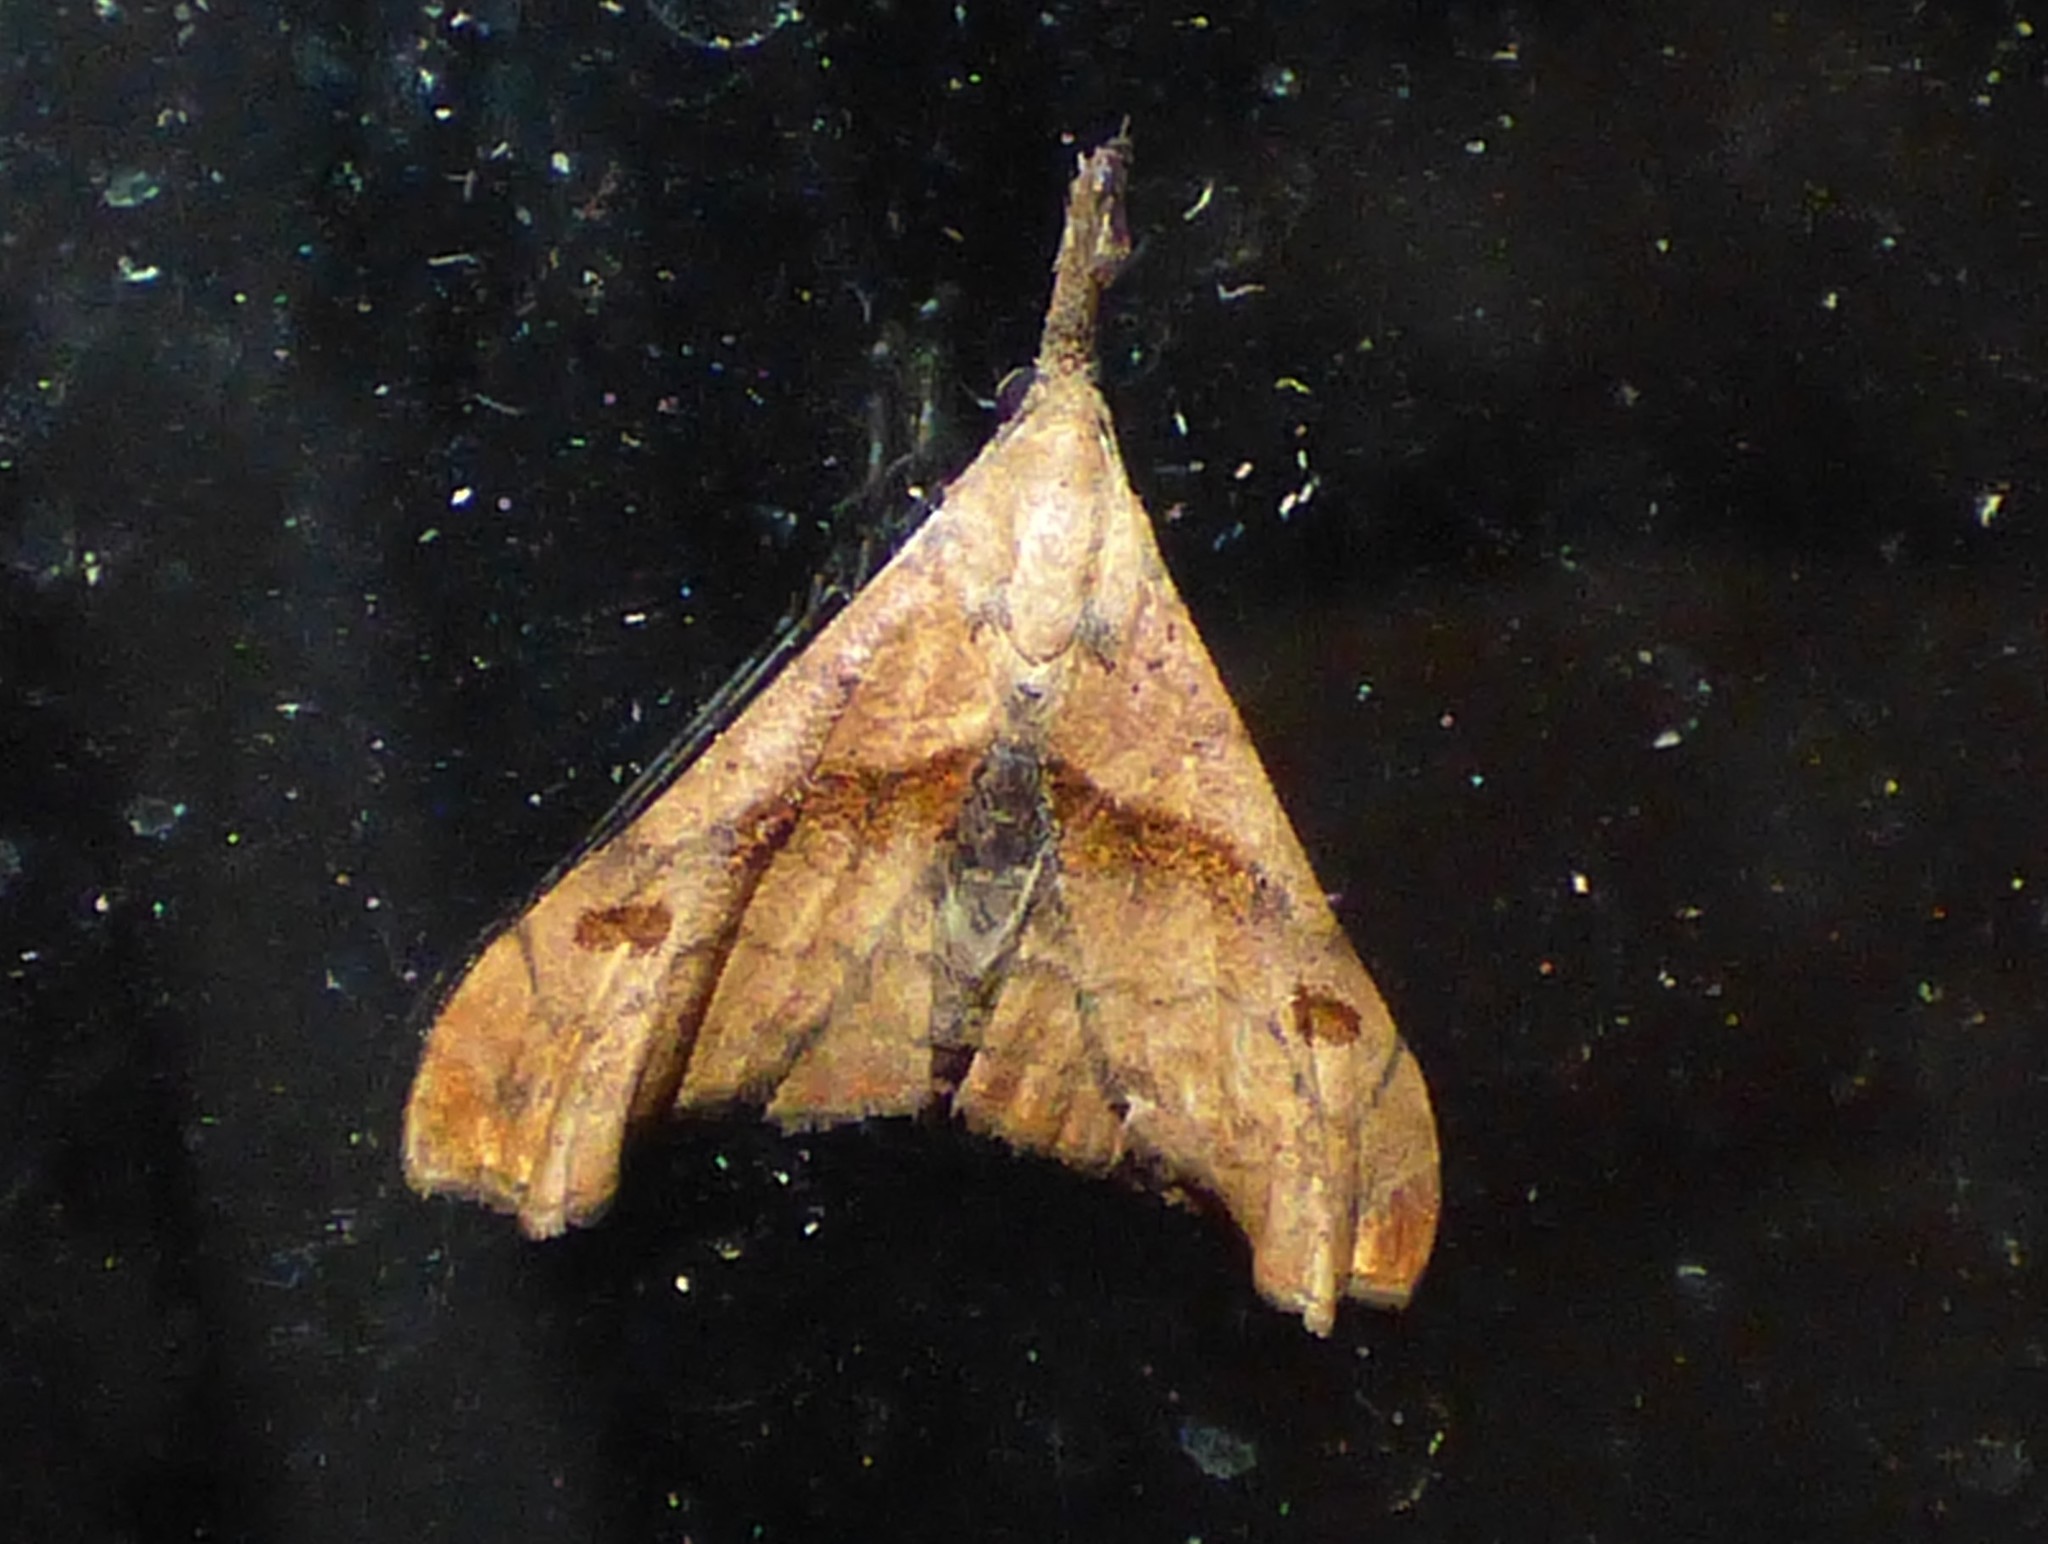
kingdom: Animalia
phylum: Arthropoda
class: Insecta
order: Lepidoptera
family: Erebidae
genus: Palthis
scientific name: Palthis angulalis
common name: Dark-spotted palthis moth
